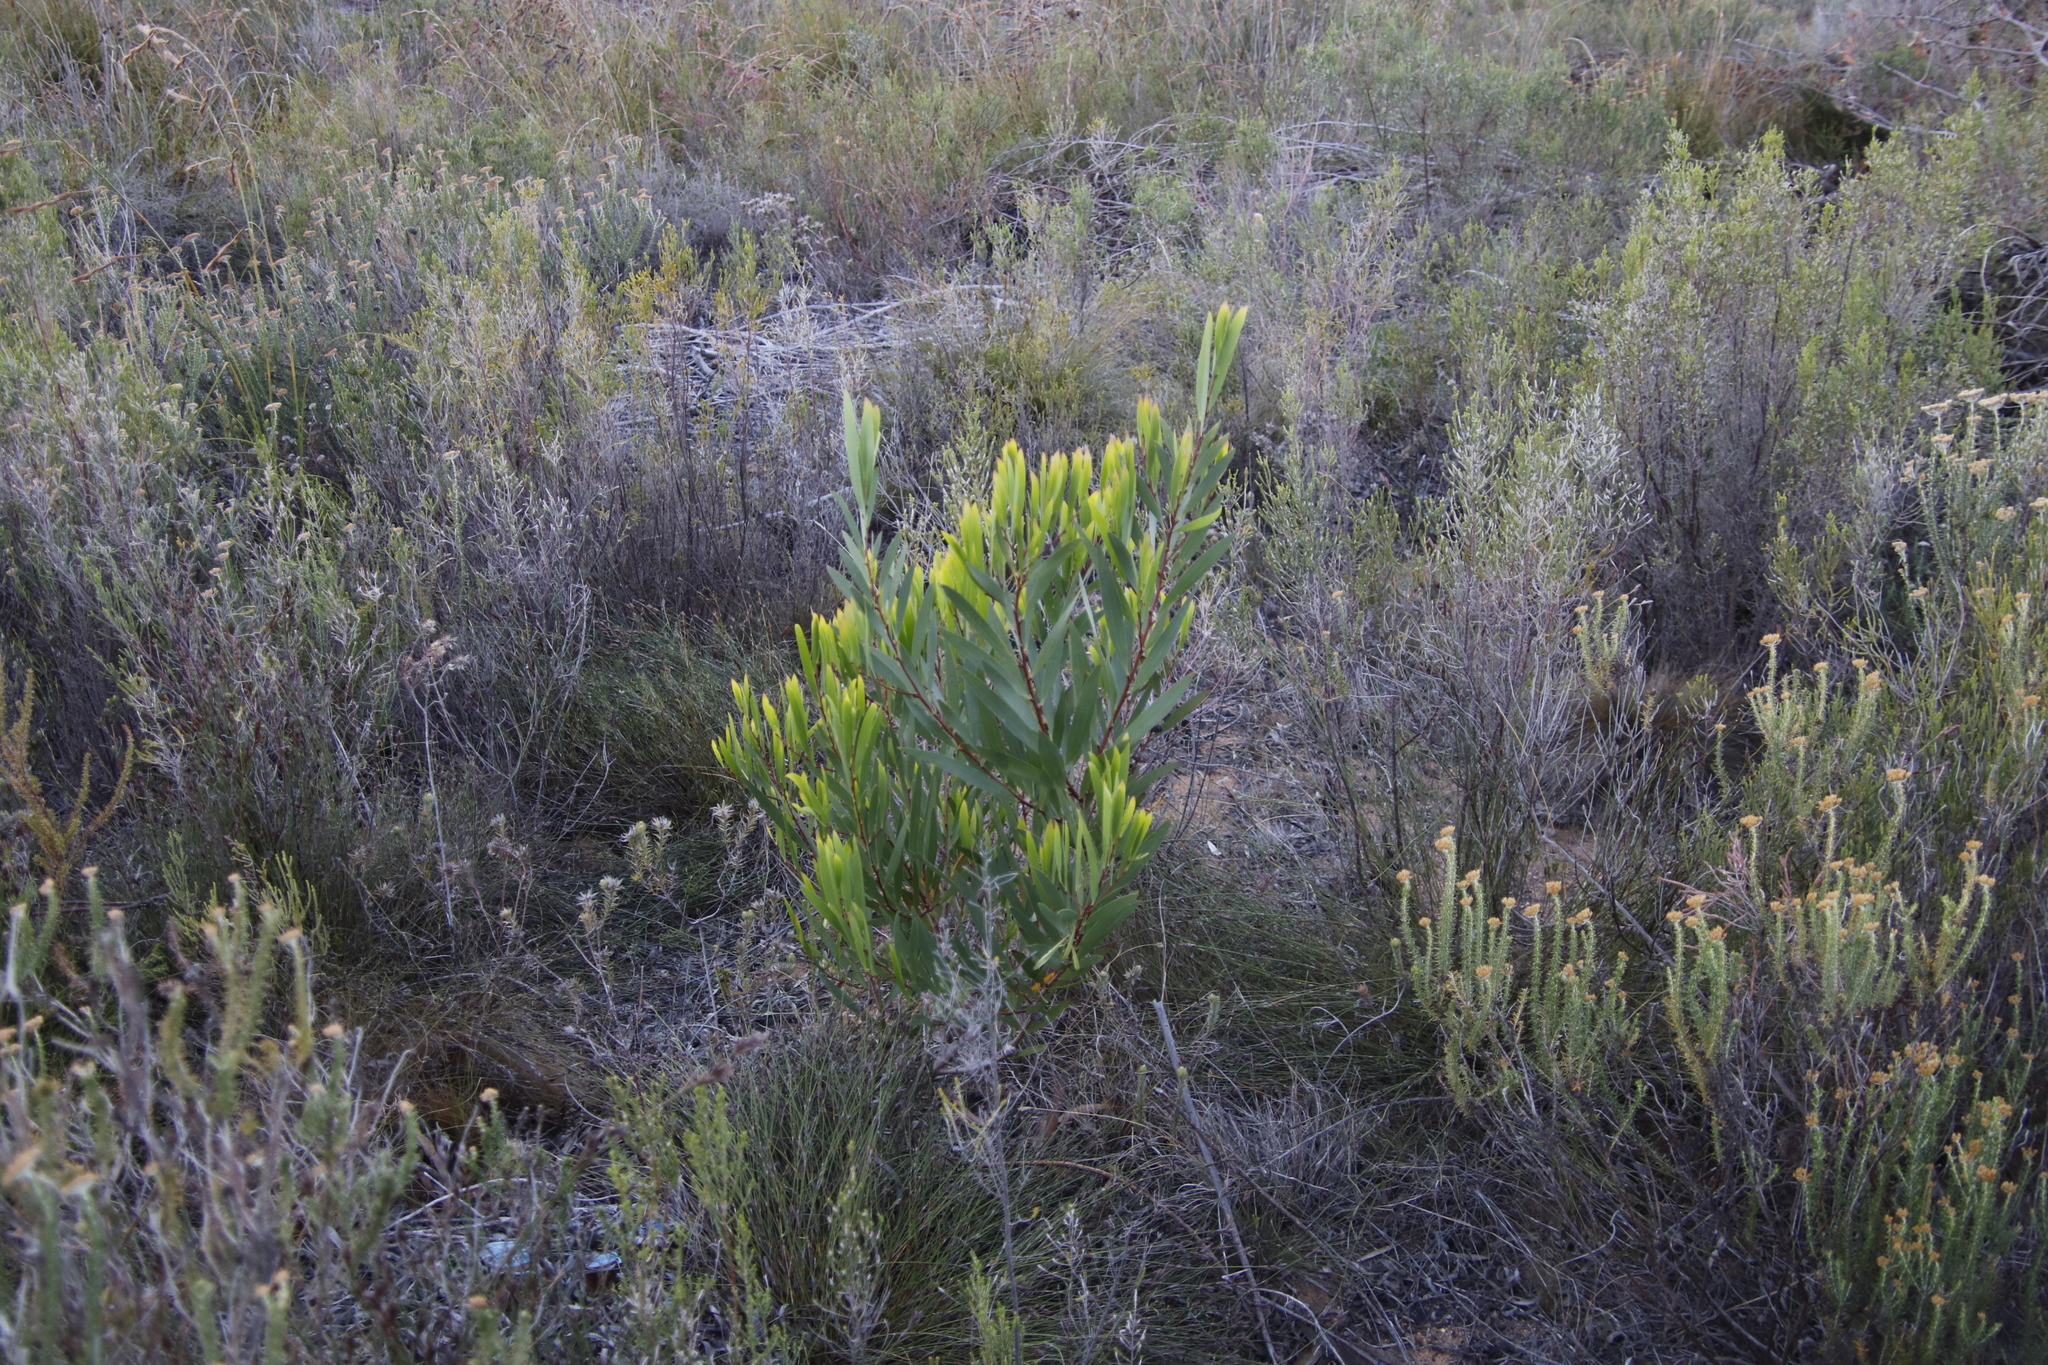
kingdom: Plantae
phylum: Tracheophyta
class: Magnoliopsida
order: Fabales
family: Fabaceae
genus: Acacia
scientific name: Acacia longifolia
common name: Sydney golden wattle
